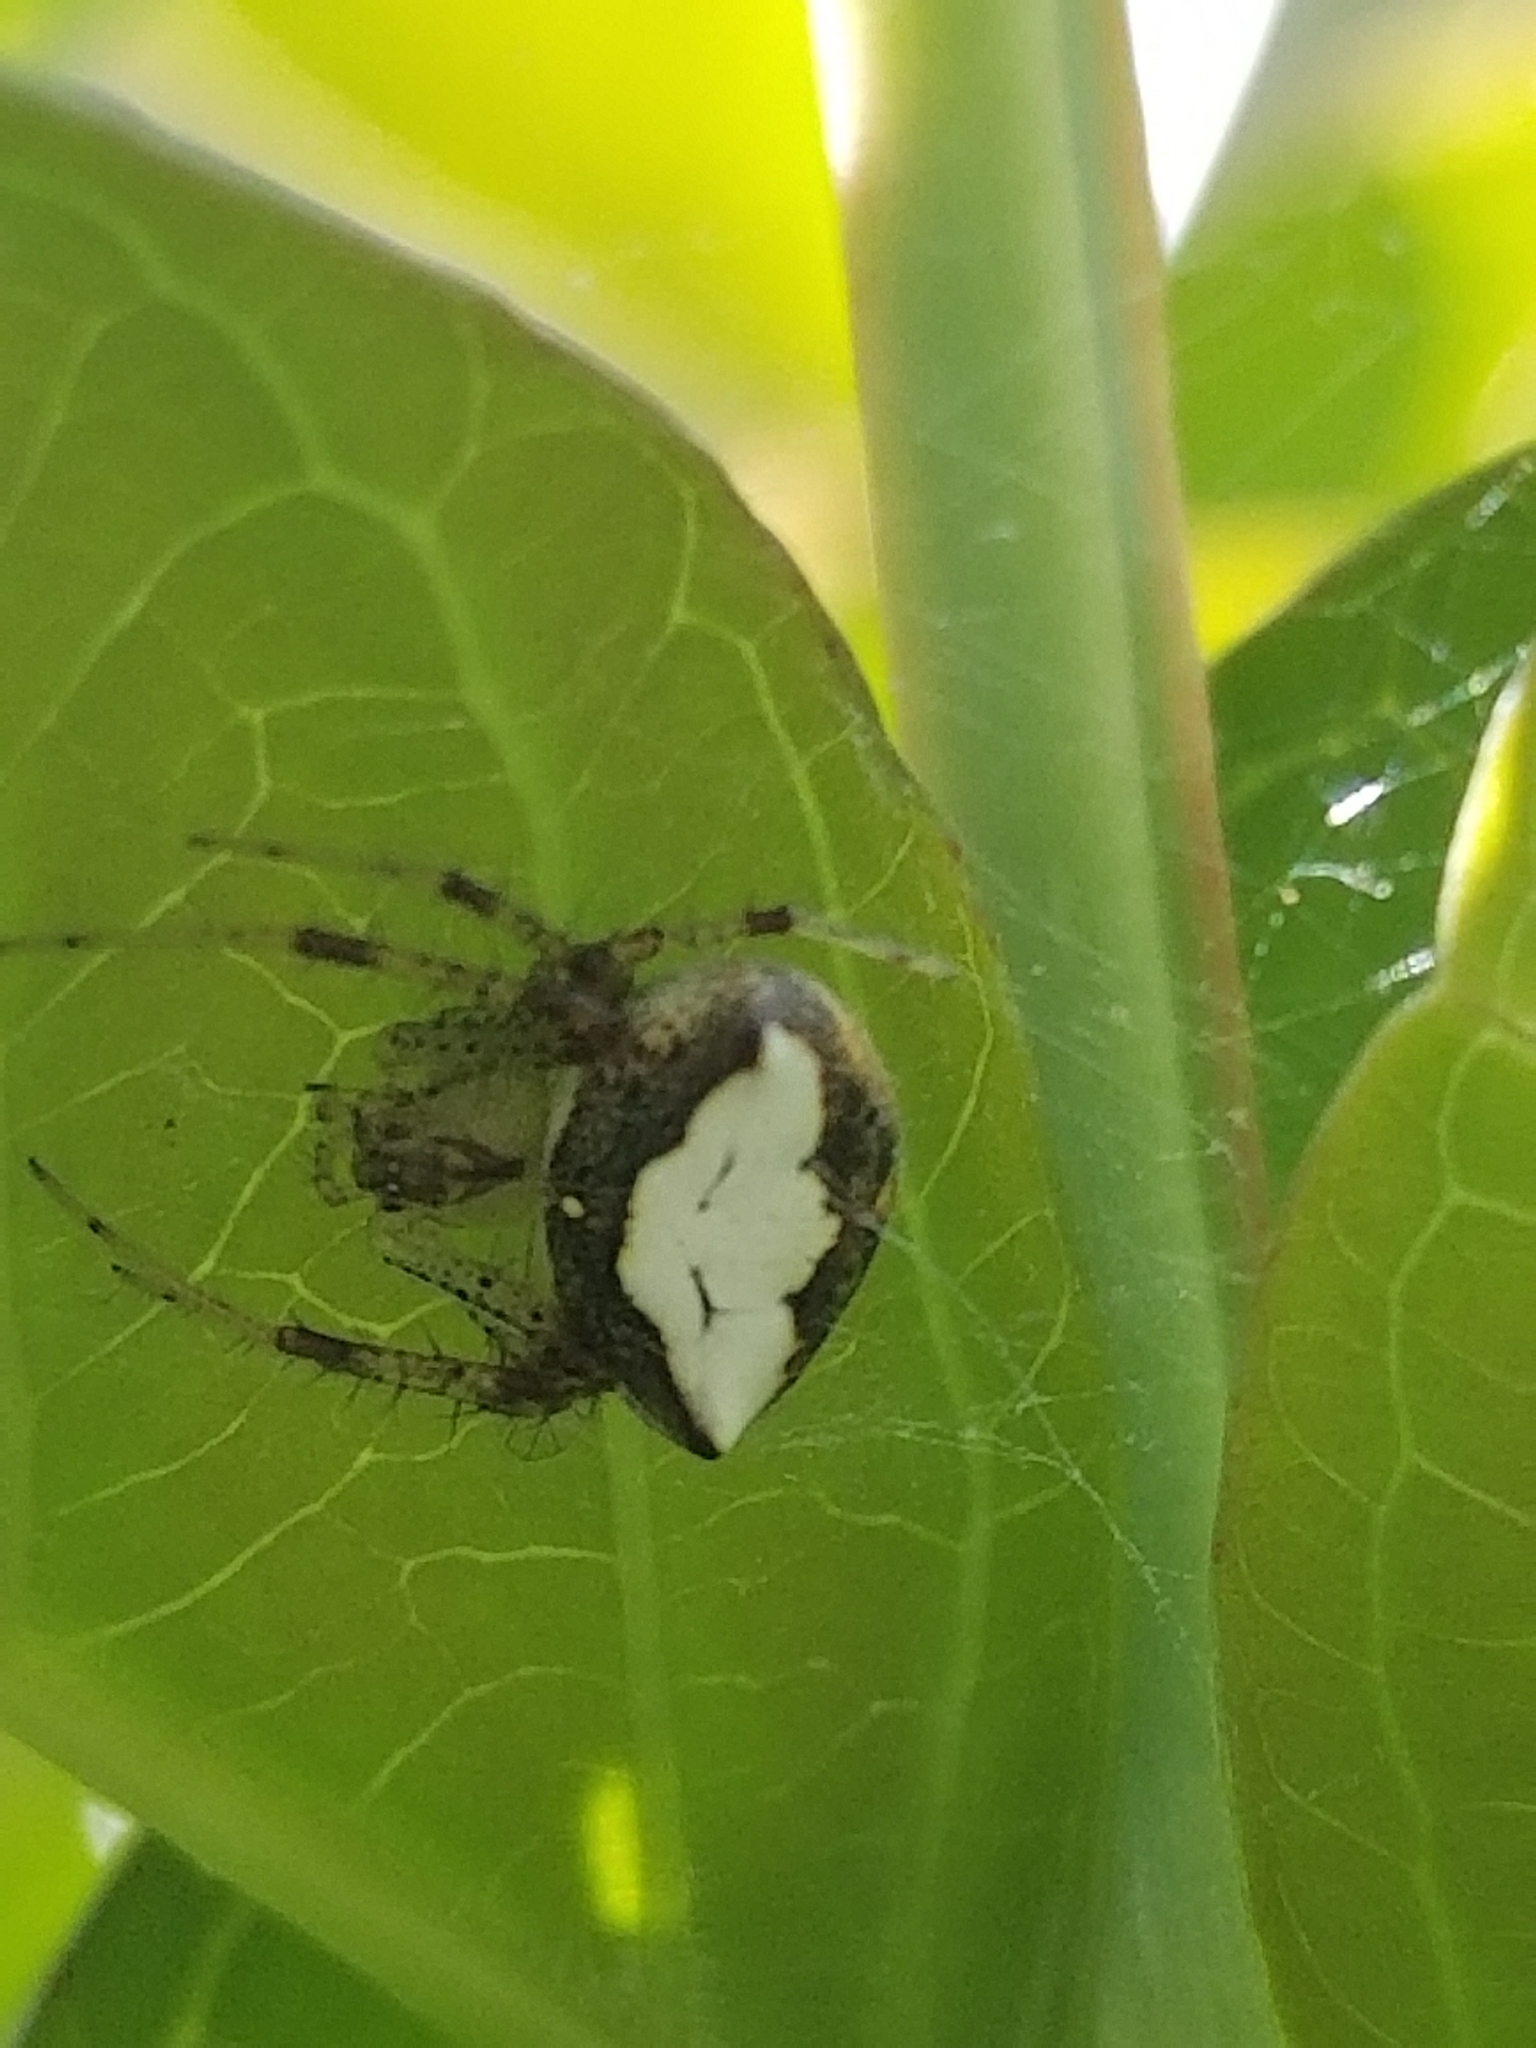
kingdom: Animalia
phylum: Arthropoda
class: Arachnida
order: Araneae
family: Araneidae
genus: Araneus
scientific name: Araneus miniatus
